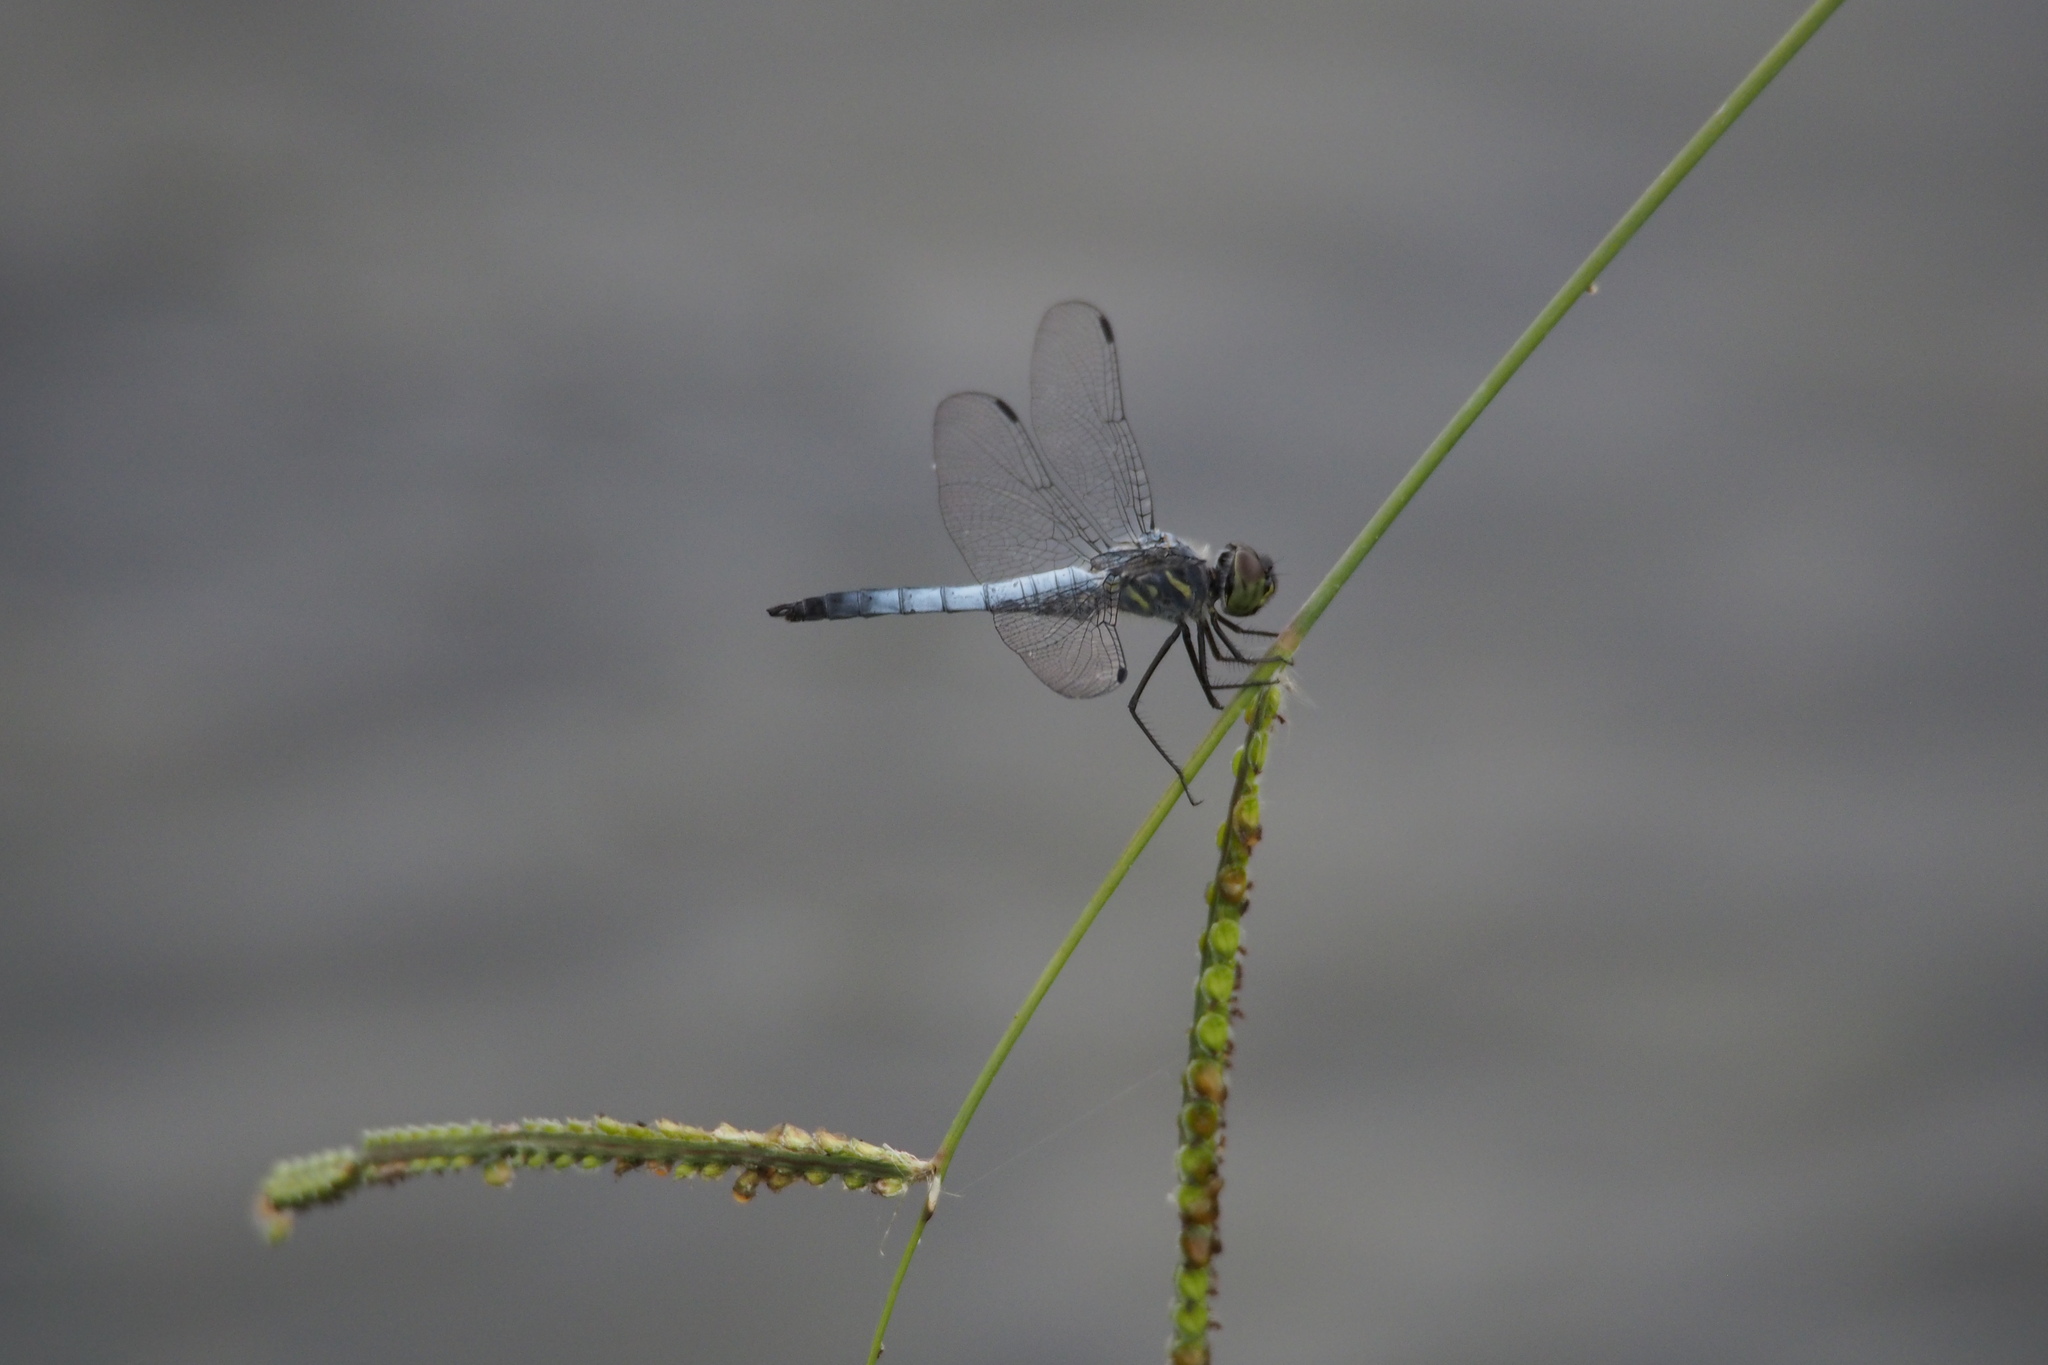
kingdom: Animalia
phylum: Arthropoda
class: Insecta
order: Odonata
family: Libellulidae
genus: Deielia
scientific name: Deielia phaon
